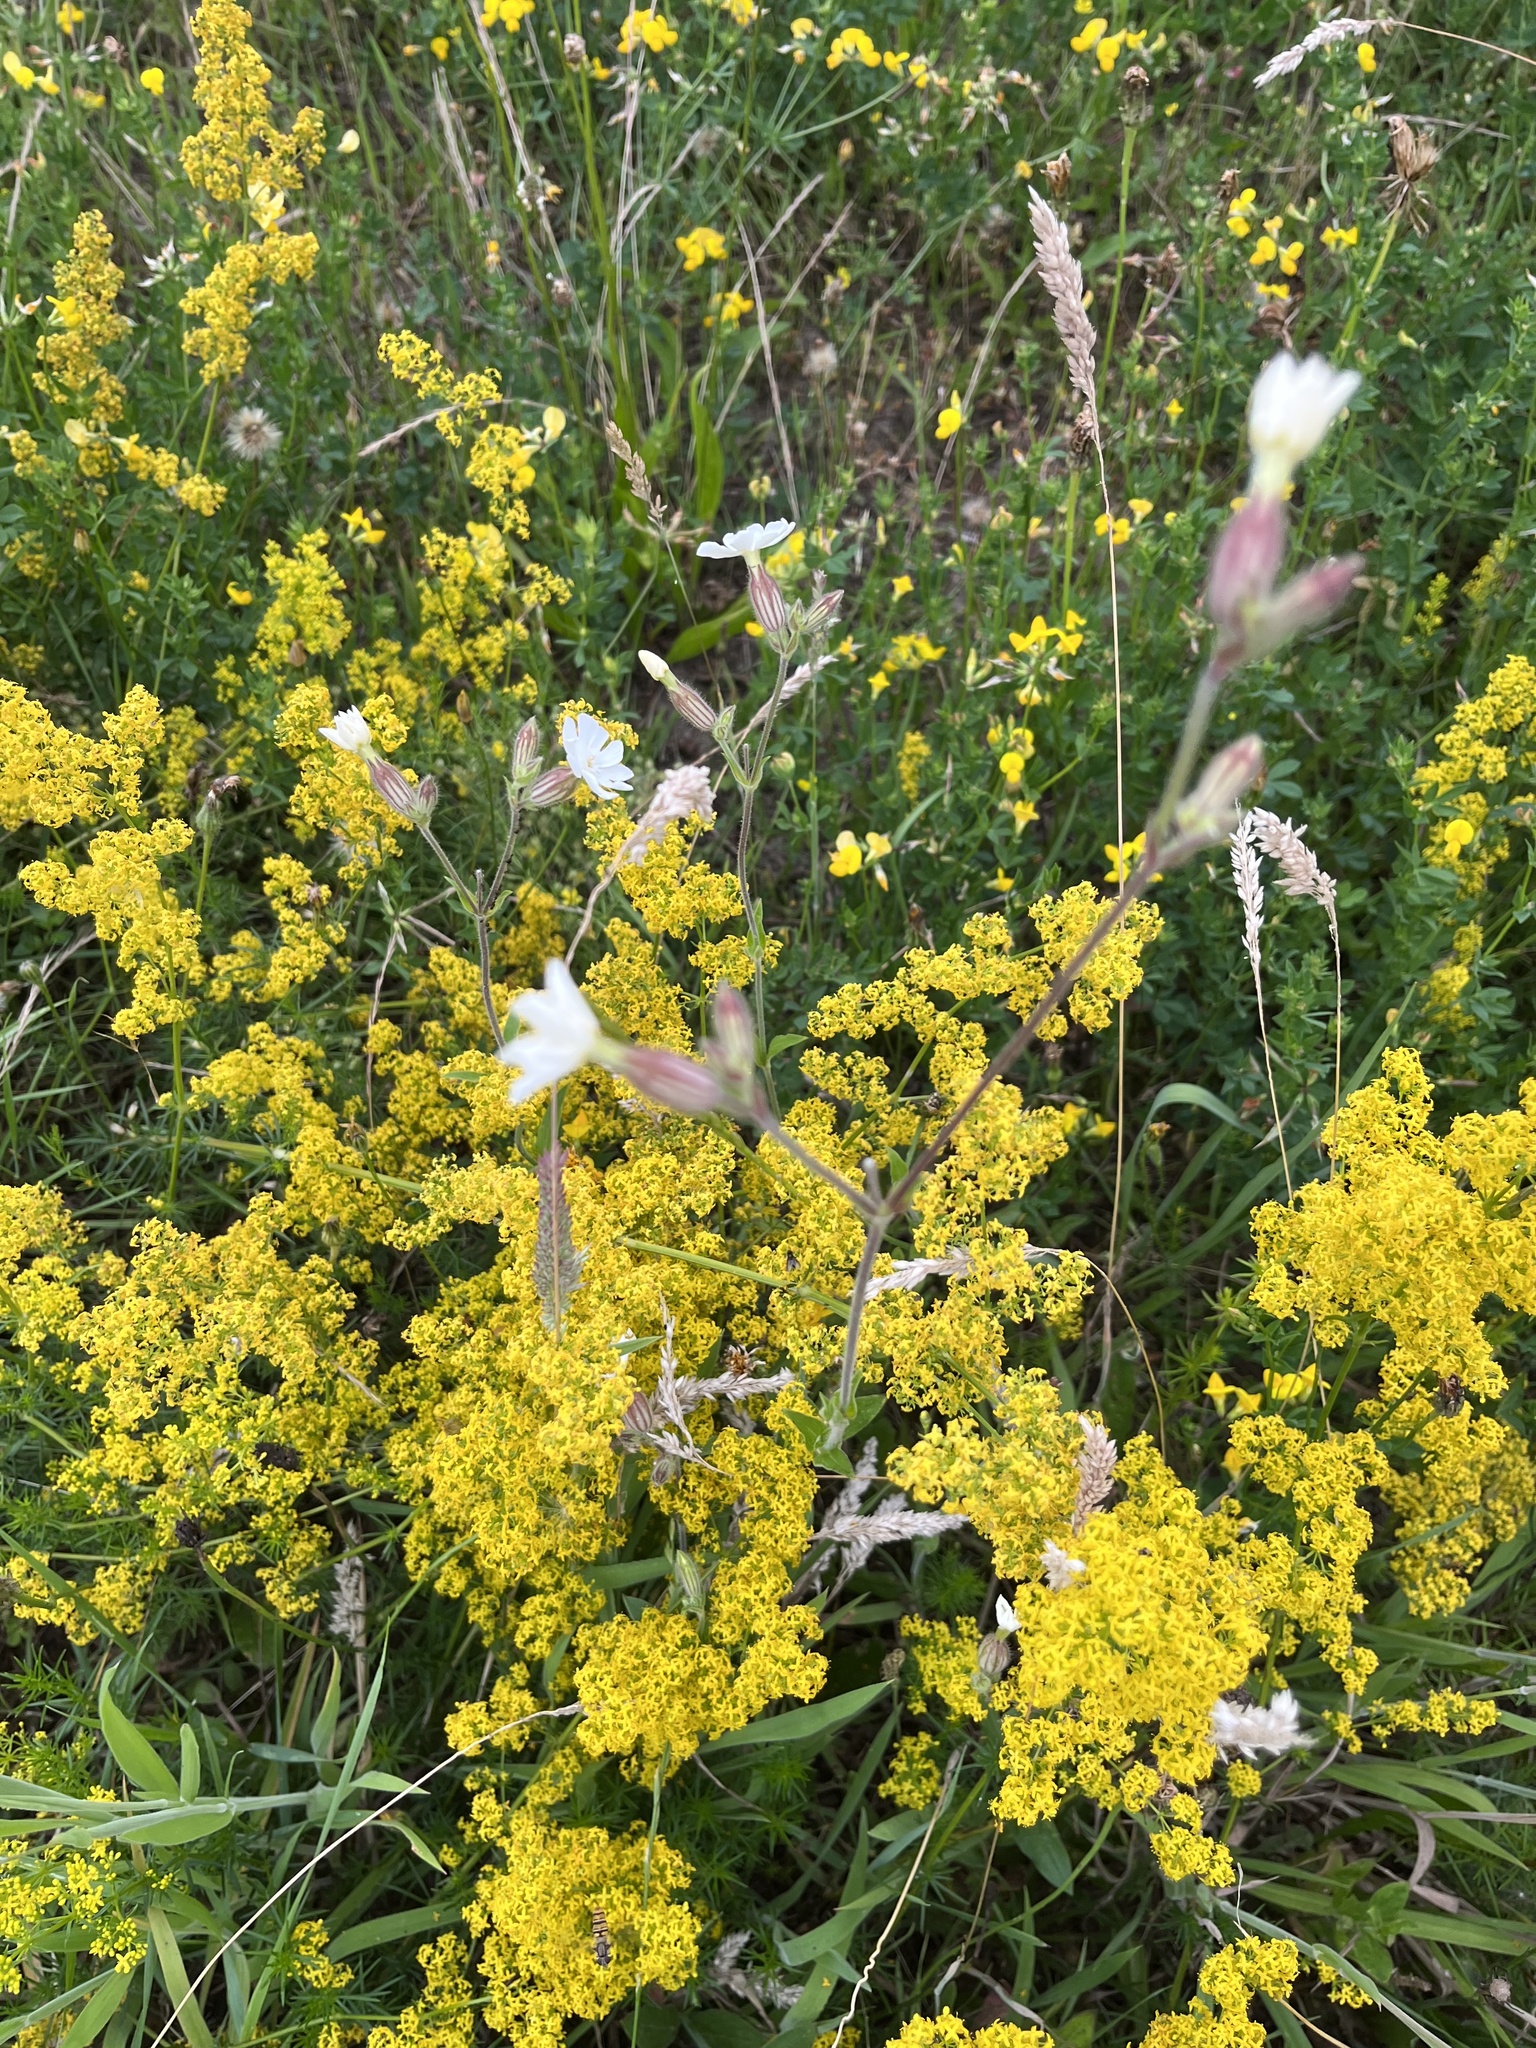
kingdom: Plantae
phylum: Tracheophyta
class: Magnoliopsida
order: Caryophyllales
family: Caryophyllaceae
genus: Silene
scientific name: Silene latifolia
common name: White campion
